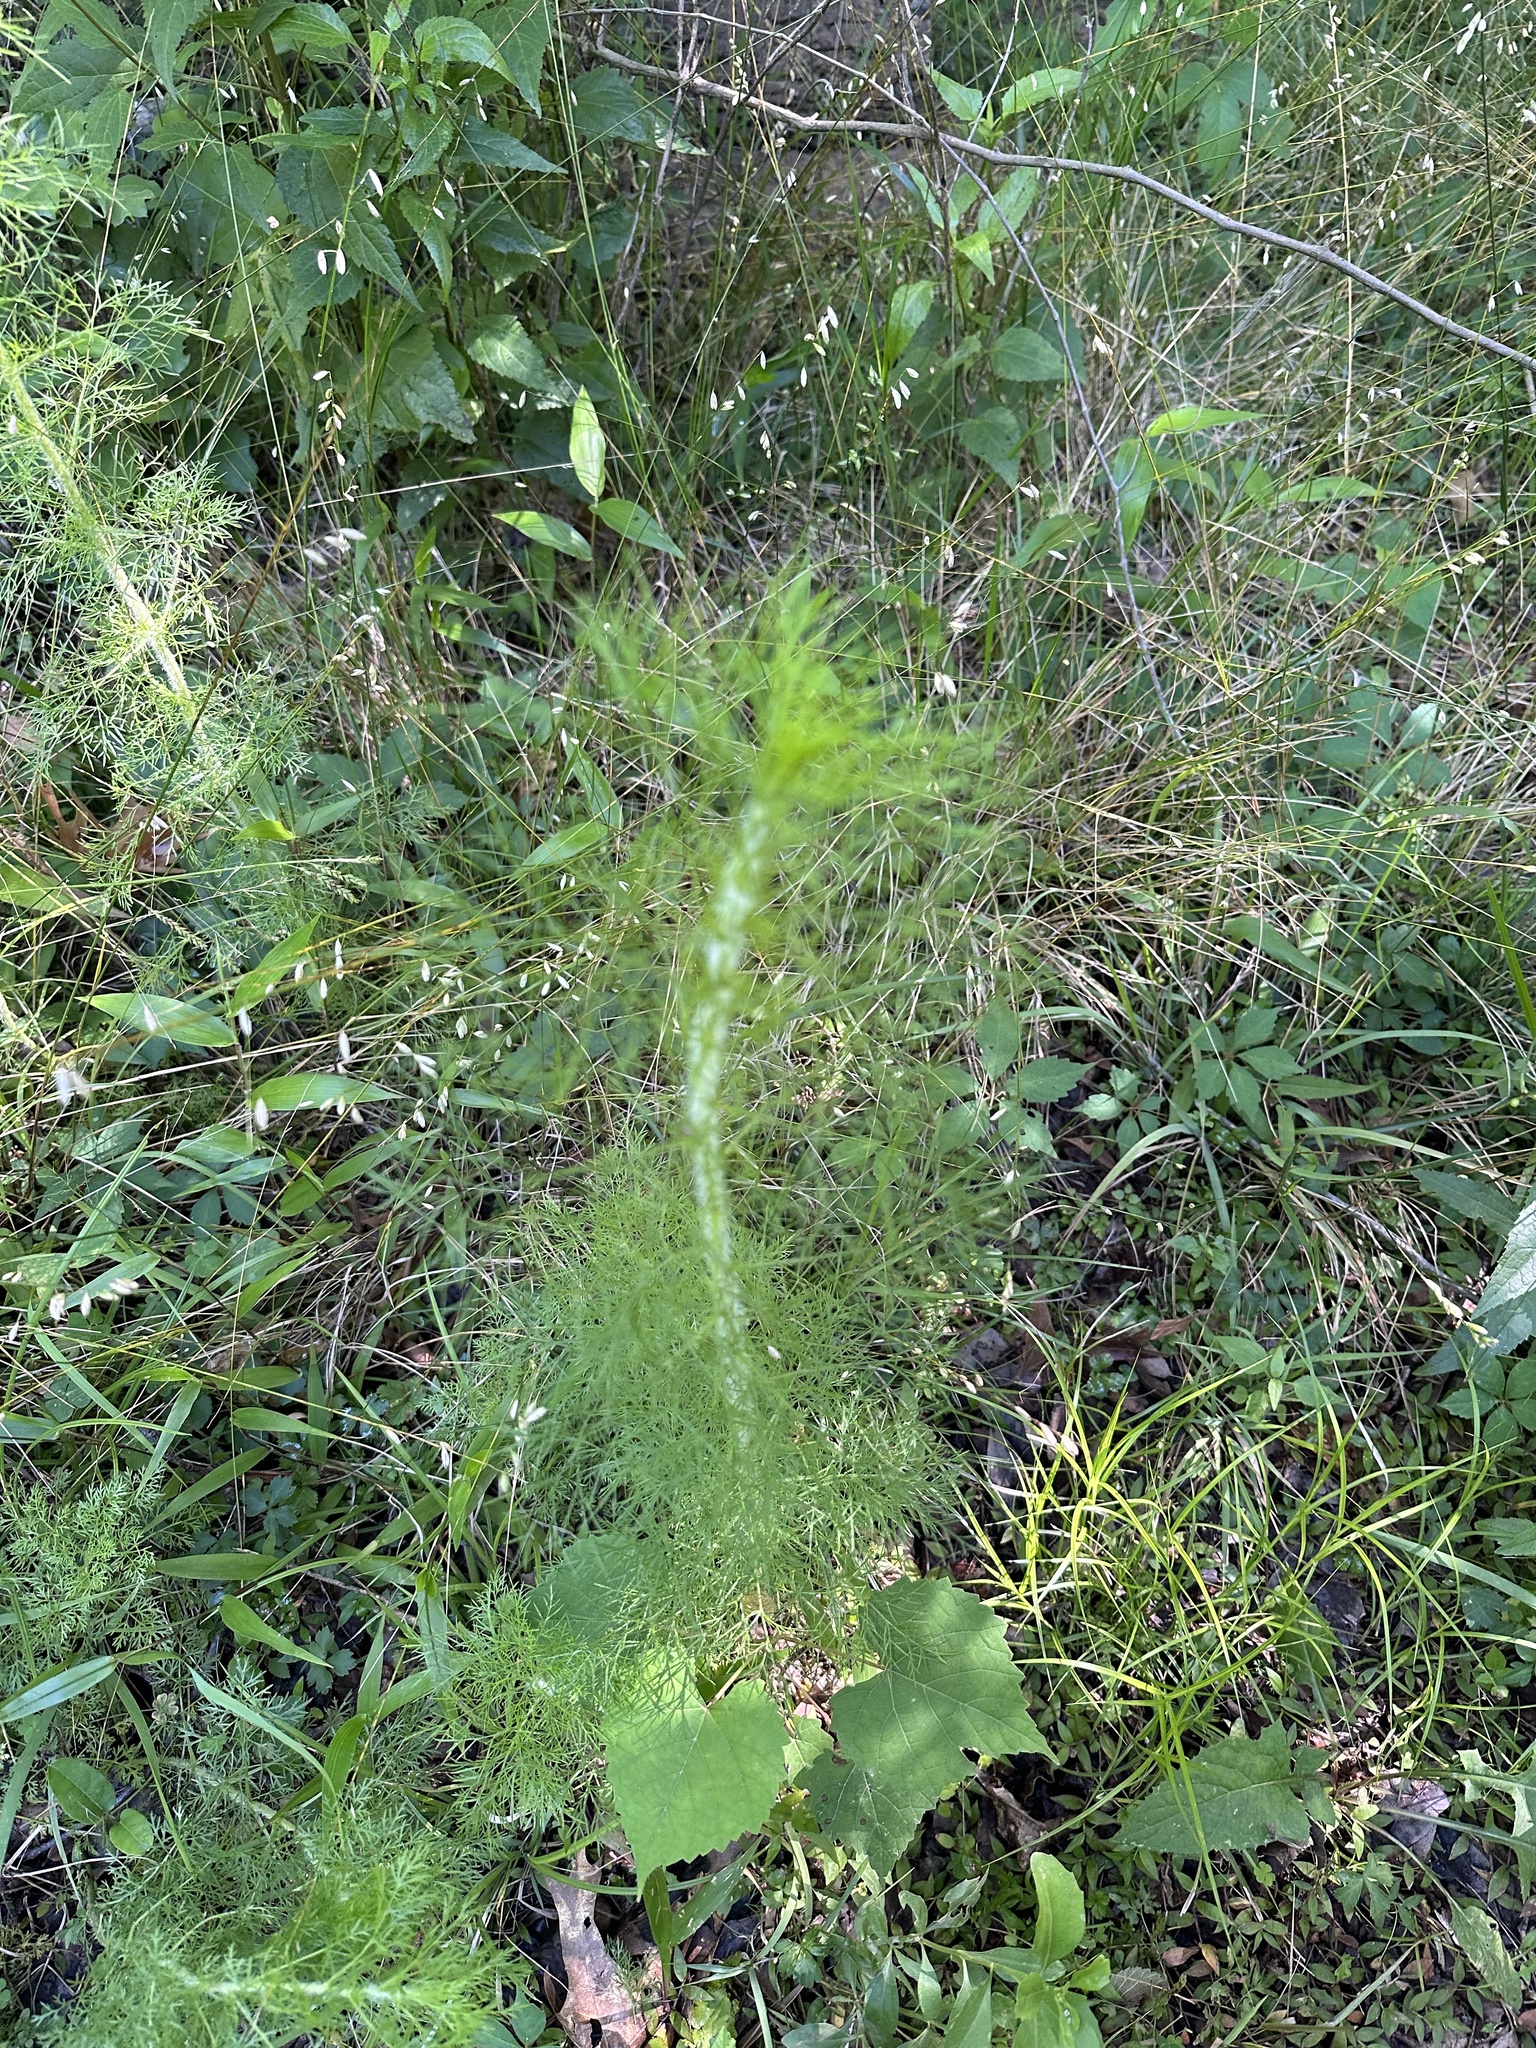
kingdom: Plantae
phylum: Tracheophyta
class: Magnoliopsida
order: Asterales
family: Asteraceae
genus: Eupatorium
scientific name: Eupatorium capillifolium
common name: Dog-fennel
